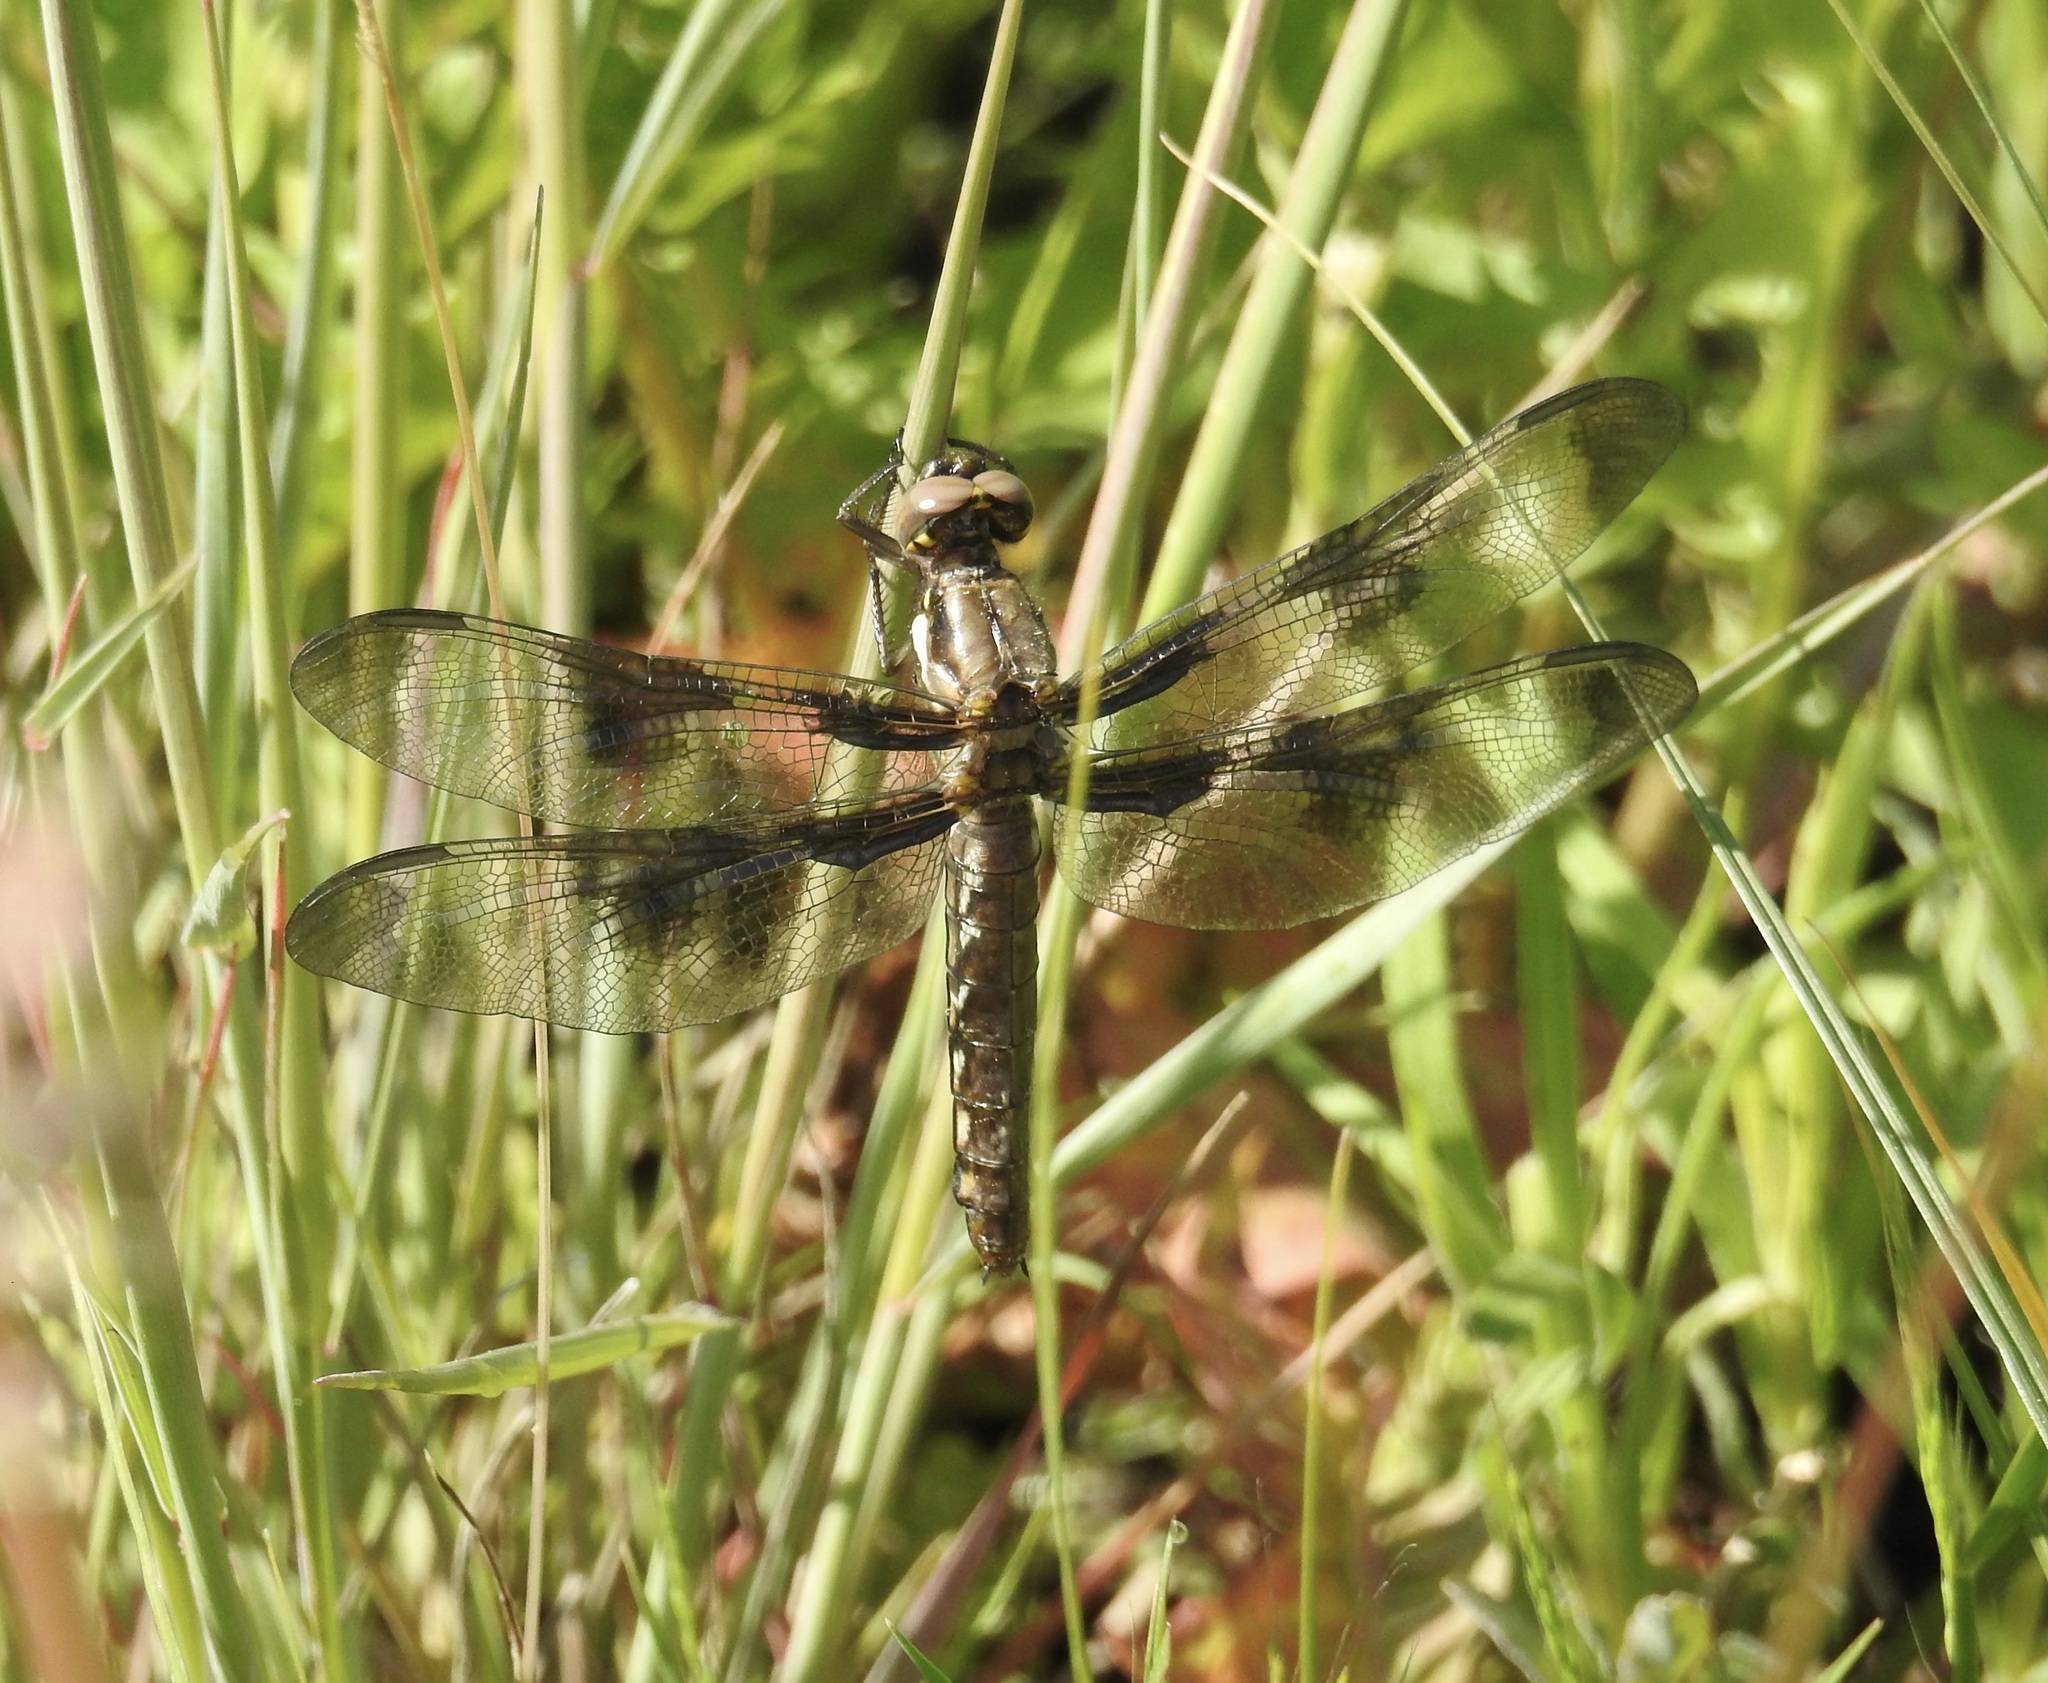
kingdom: Animalia
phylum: Arthropoda
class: Insecta
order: Odonata
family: Libellulidae
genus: Plathemis
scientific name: Plathemis lydia
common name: Common whitetail
